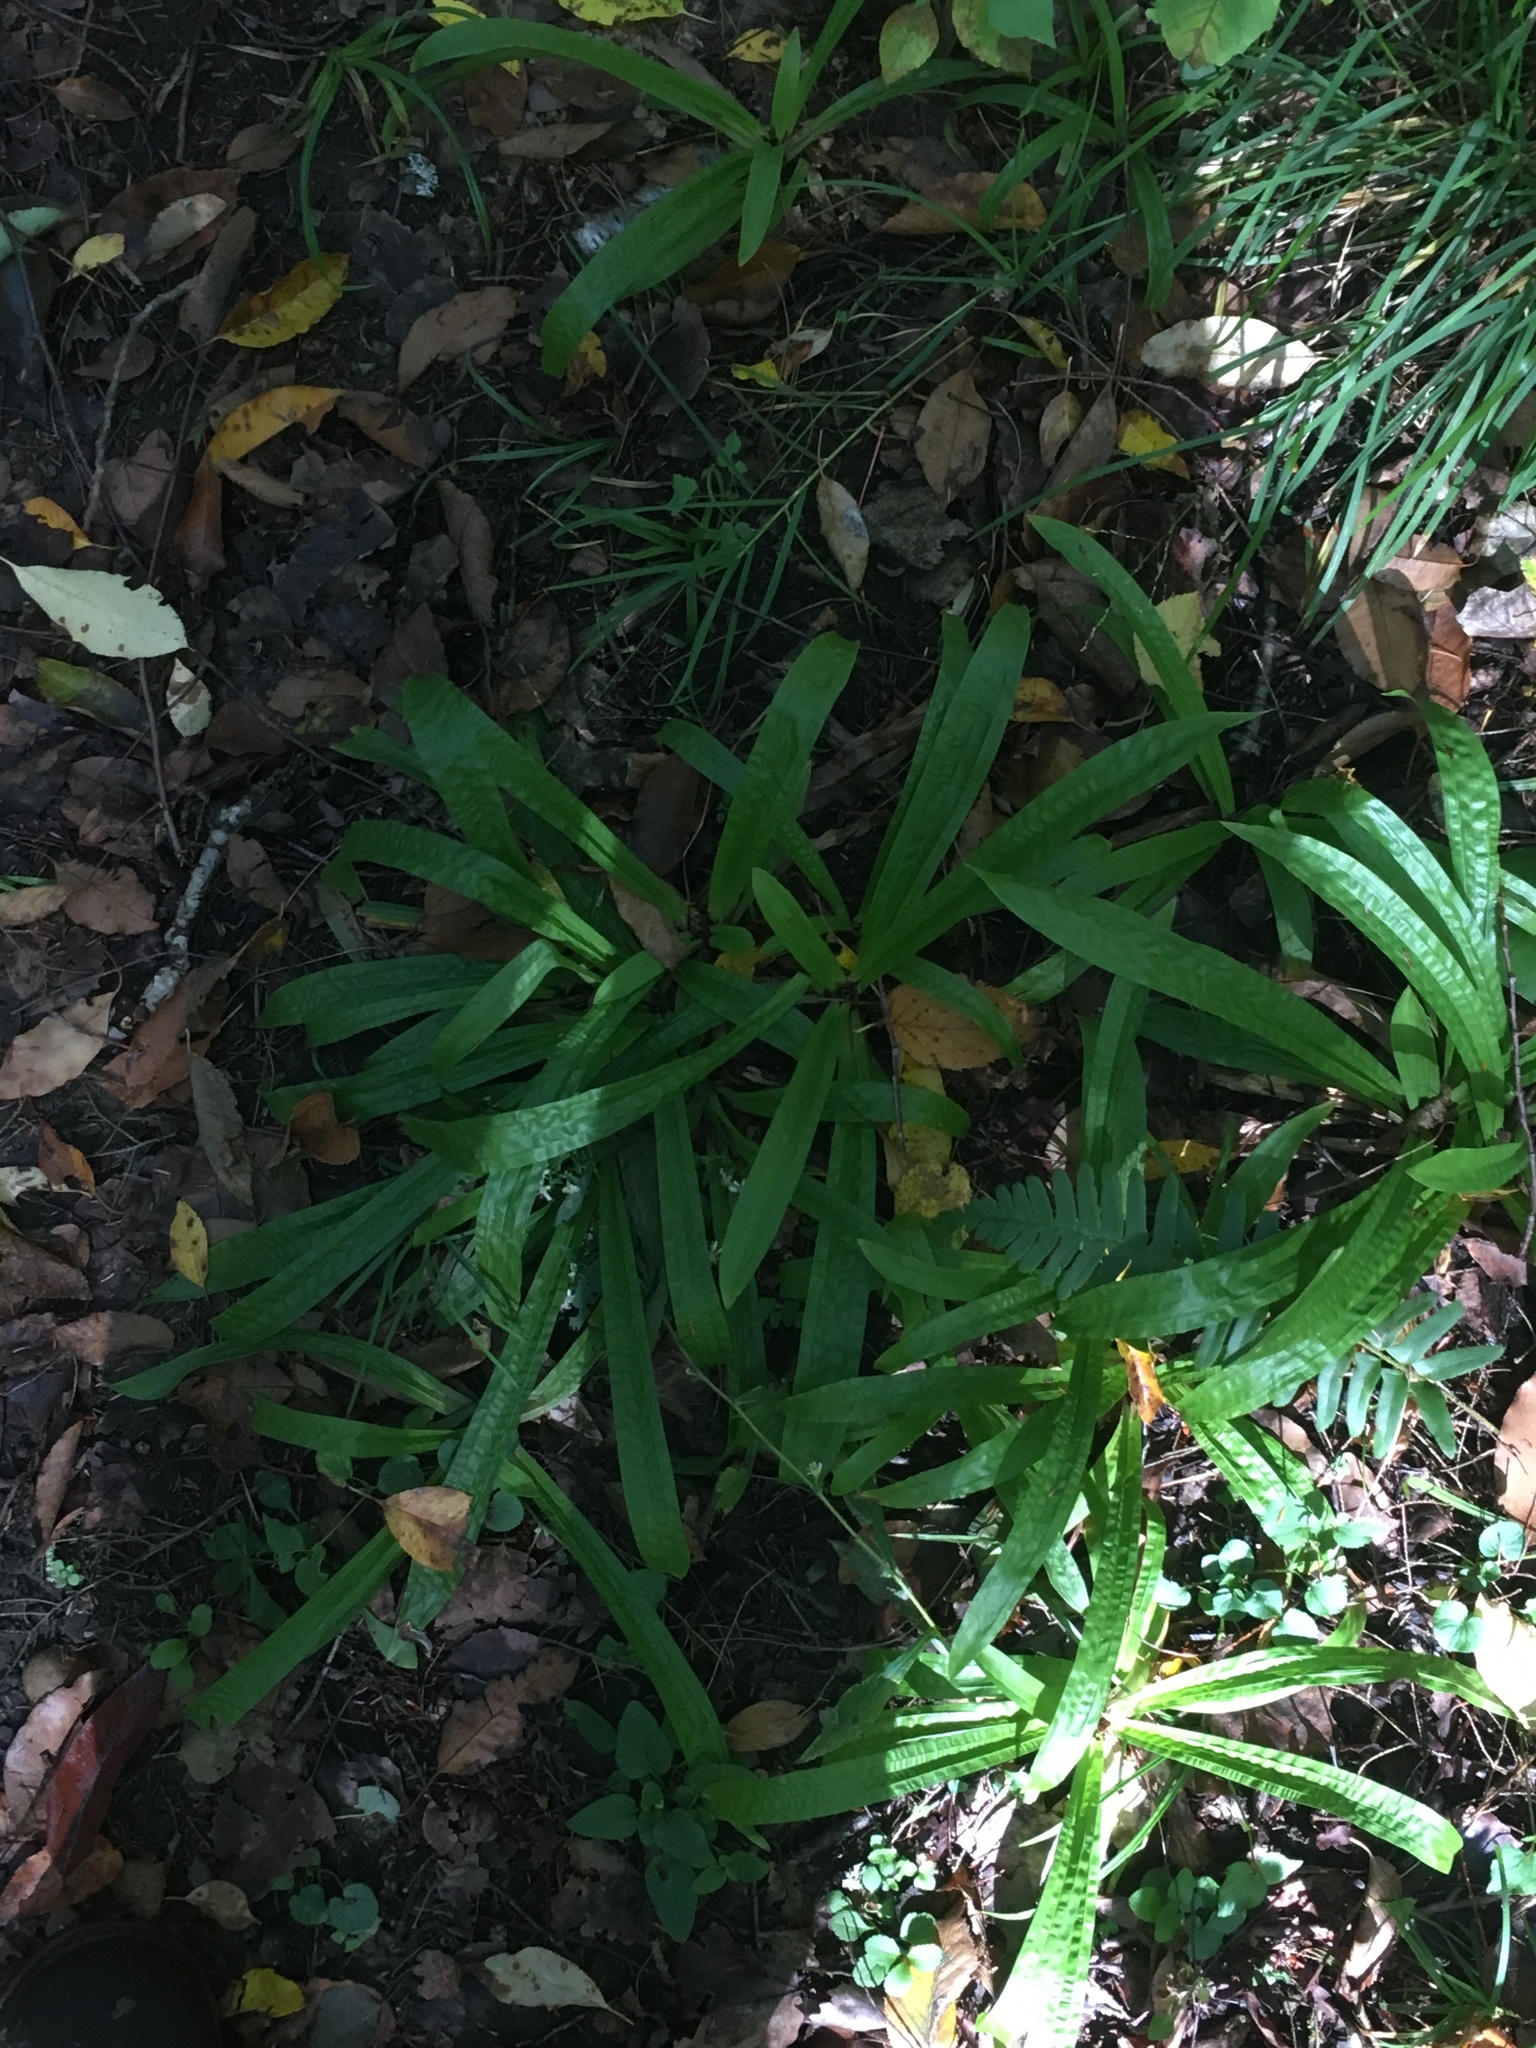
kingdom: Plantae
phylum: Tracheophyta
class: Liliopsida
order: Poales
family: Cyperaceae
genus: Carex
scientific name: Carex plantaginea
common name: Plantain-leaved sedge
